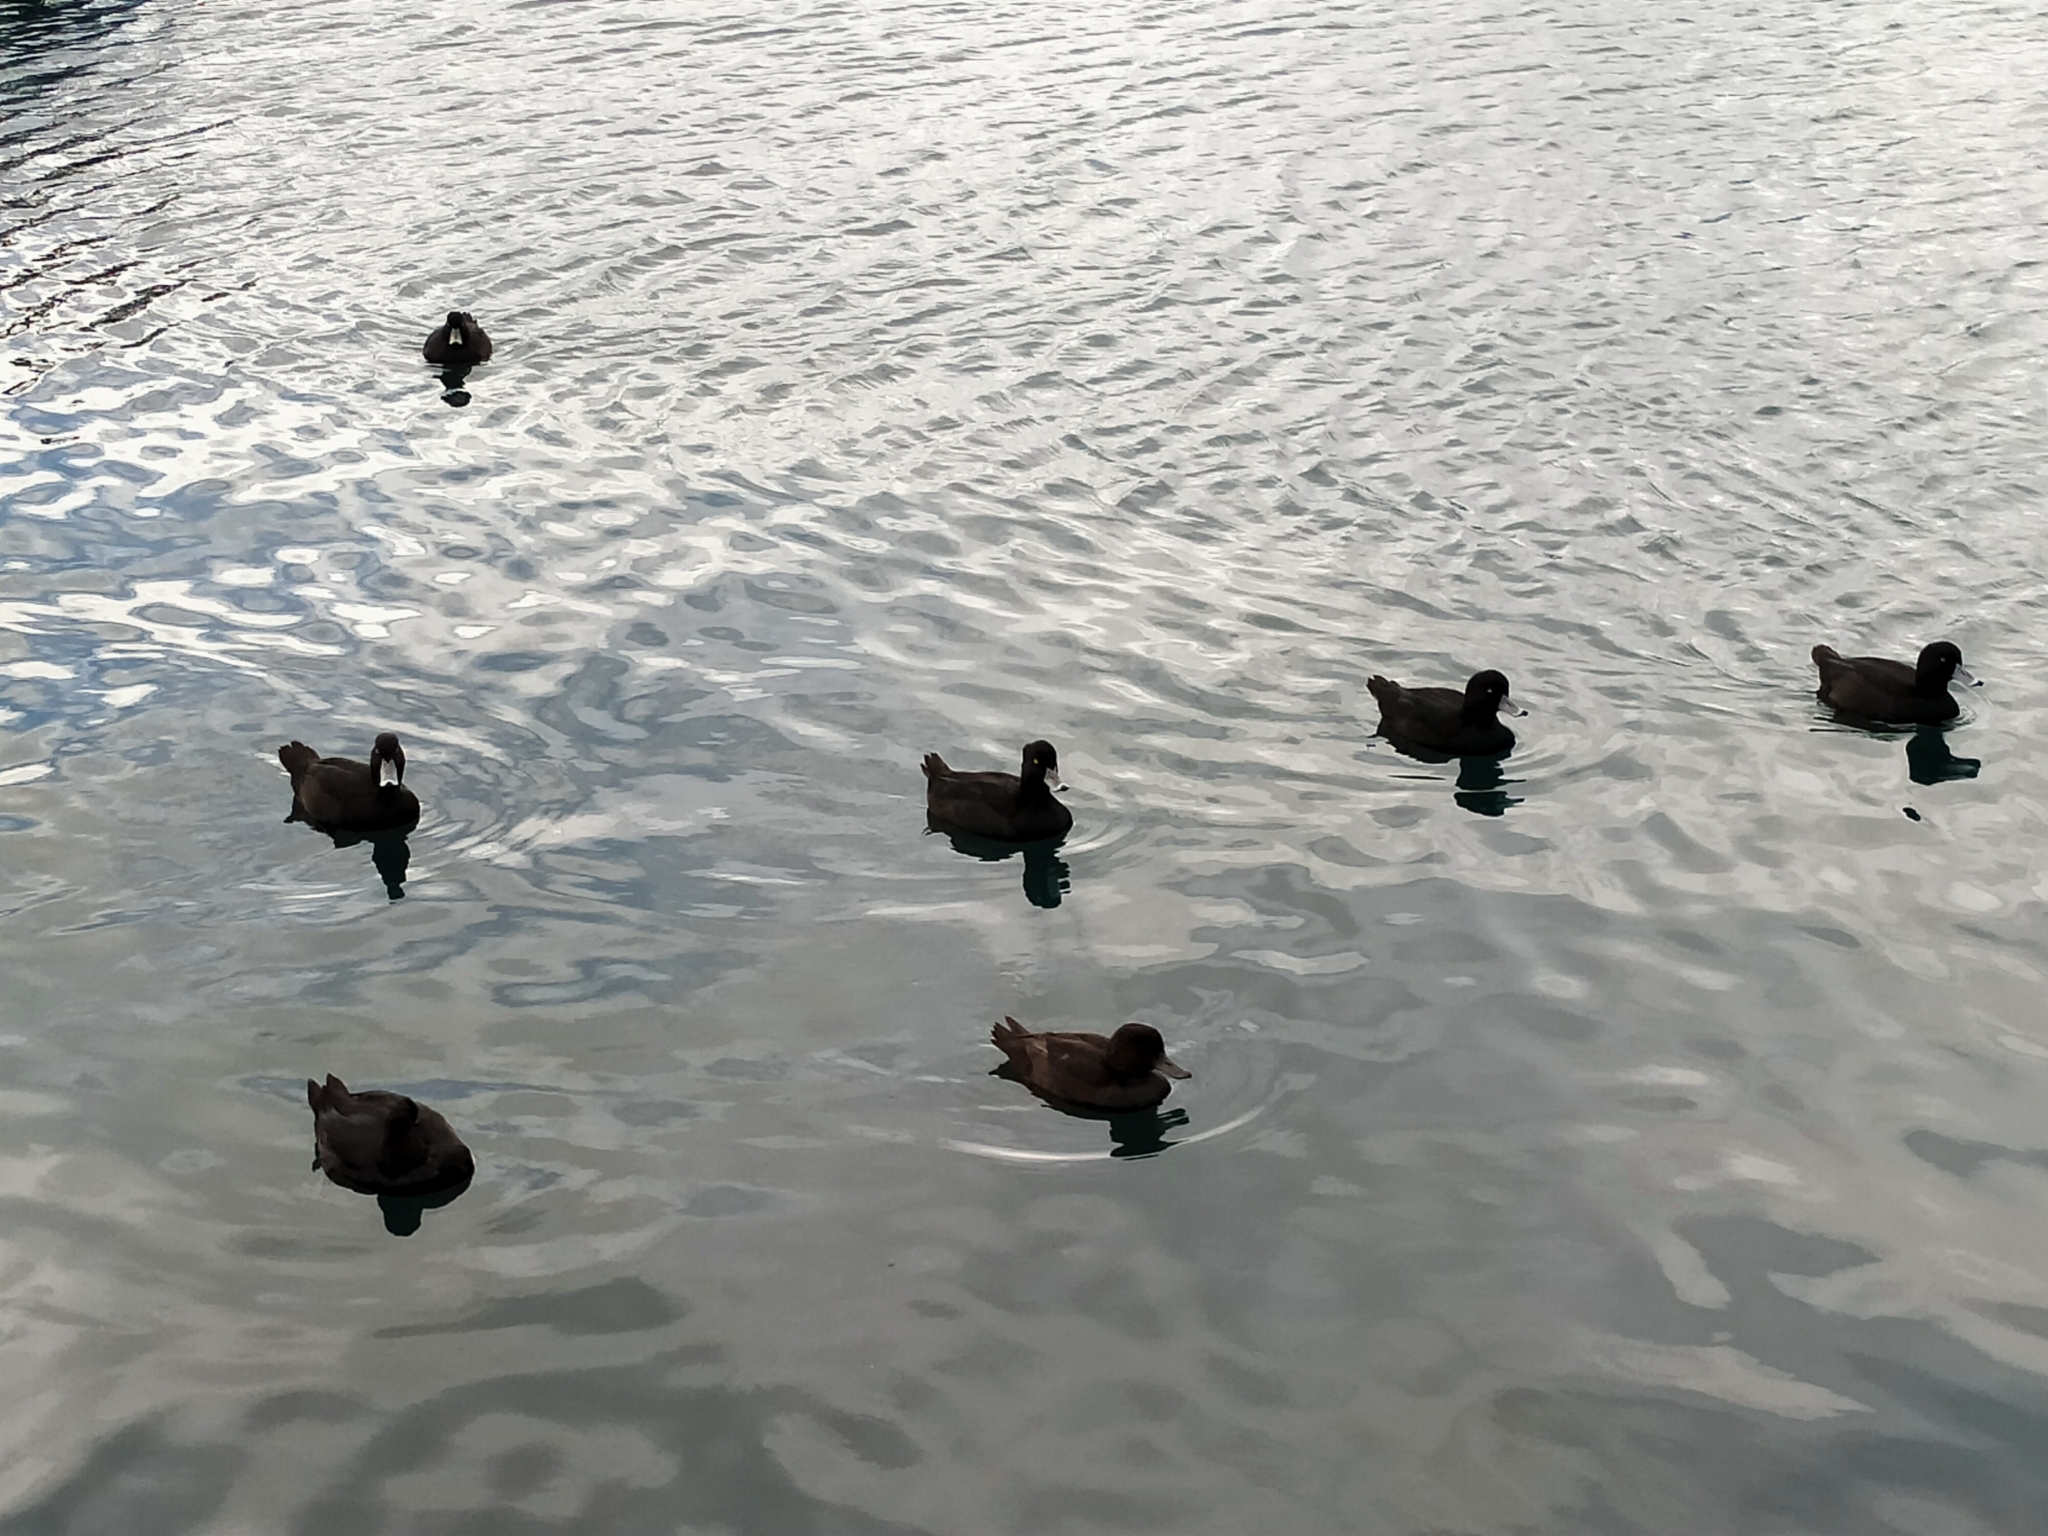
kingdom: Animalia
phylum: Chordata
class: Aves
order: Anseriformes
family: Anatidae
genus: Aythya
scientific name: Aythya novaeseelandiae
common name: New zealand scaup
